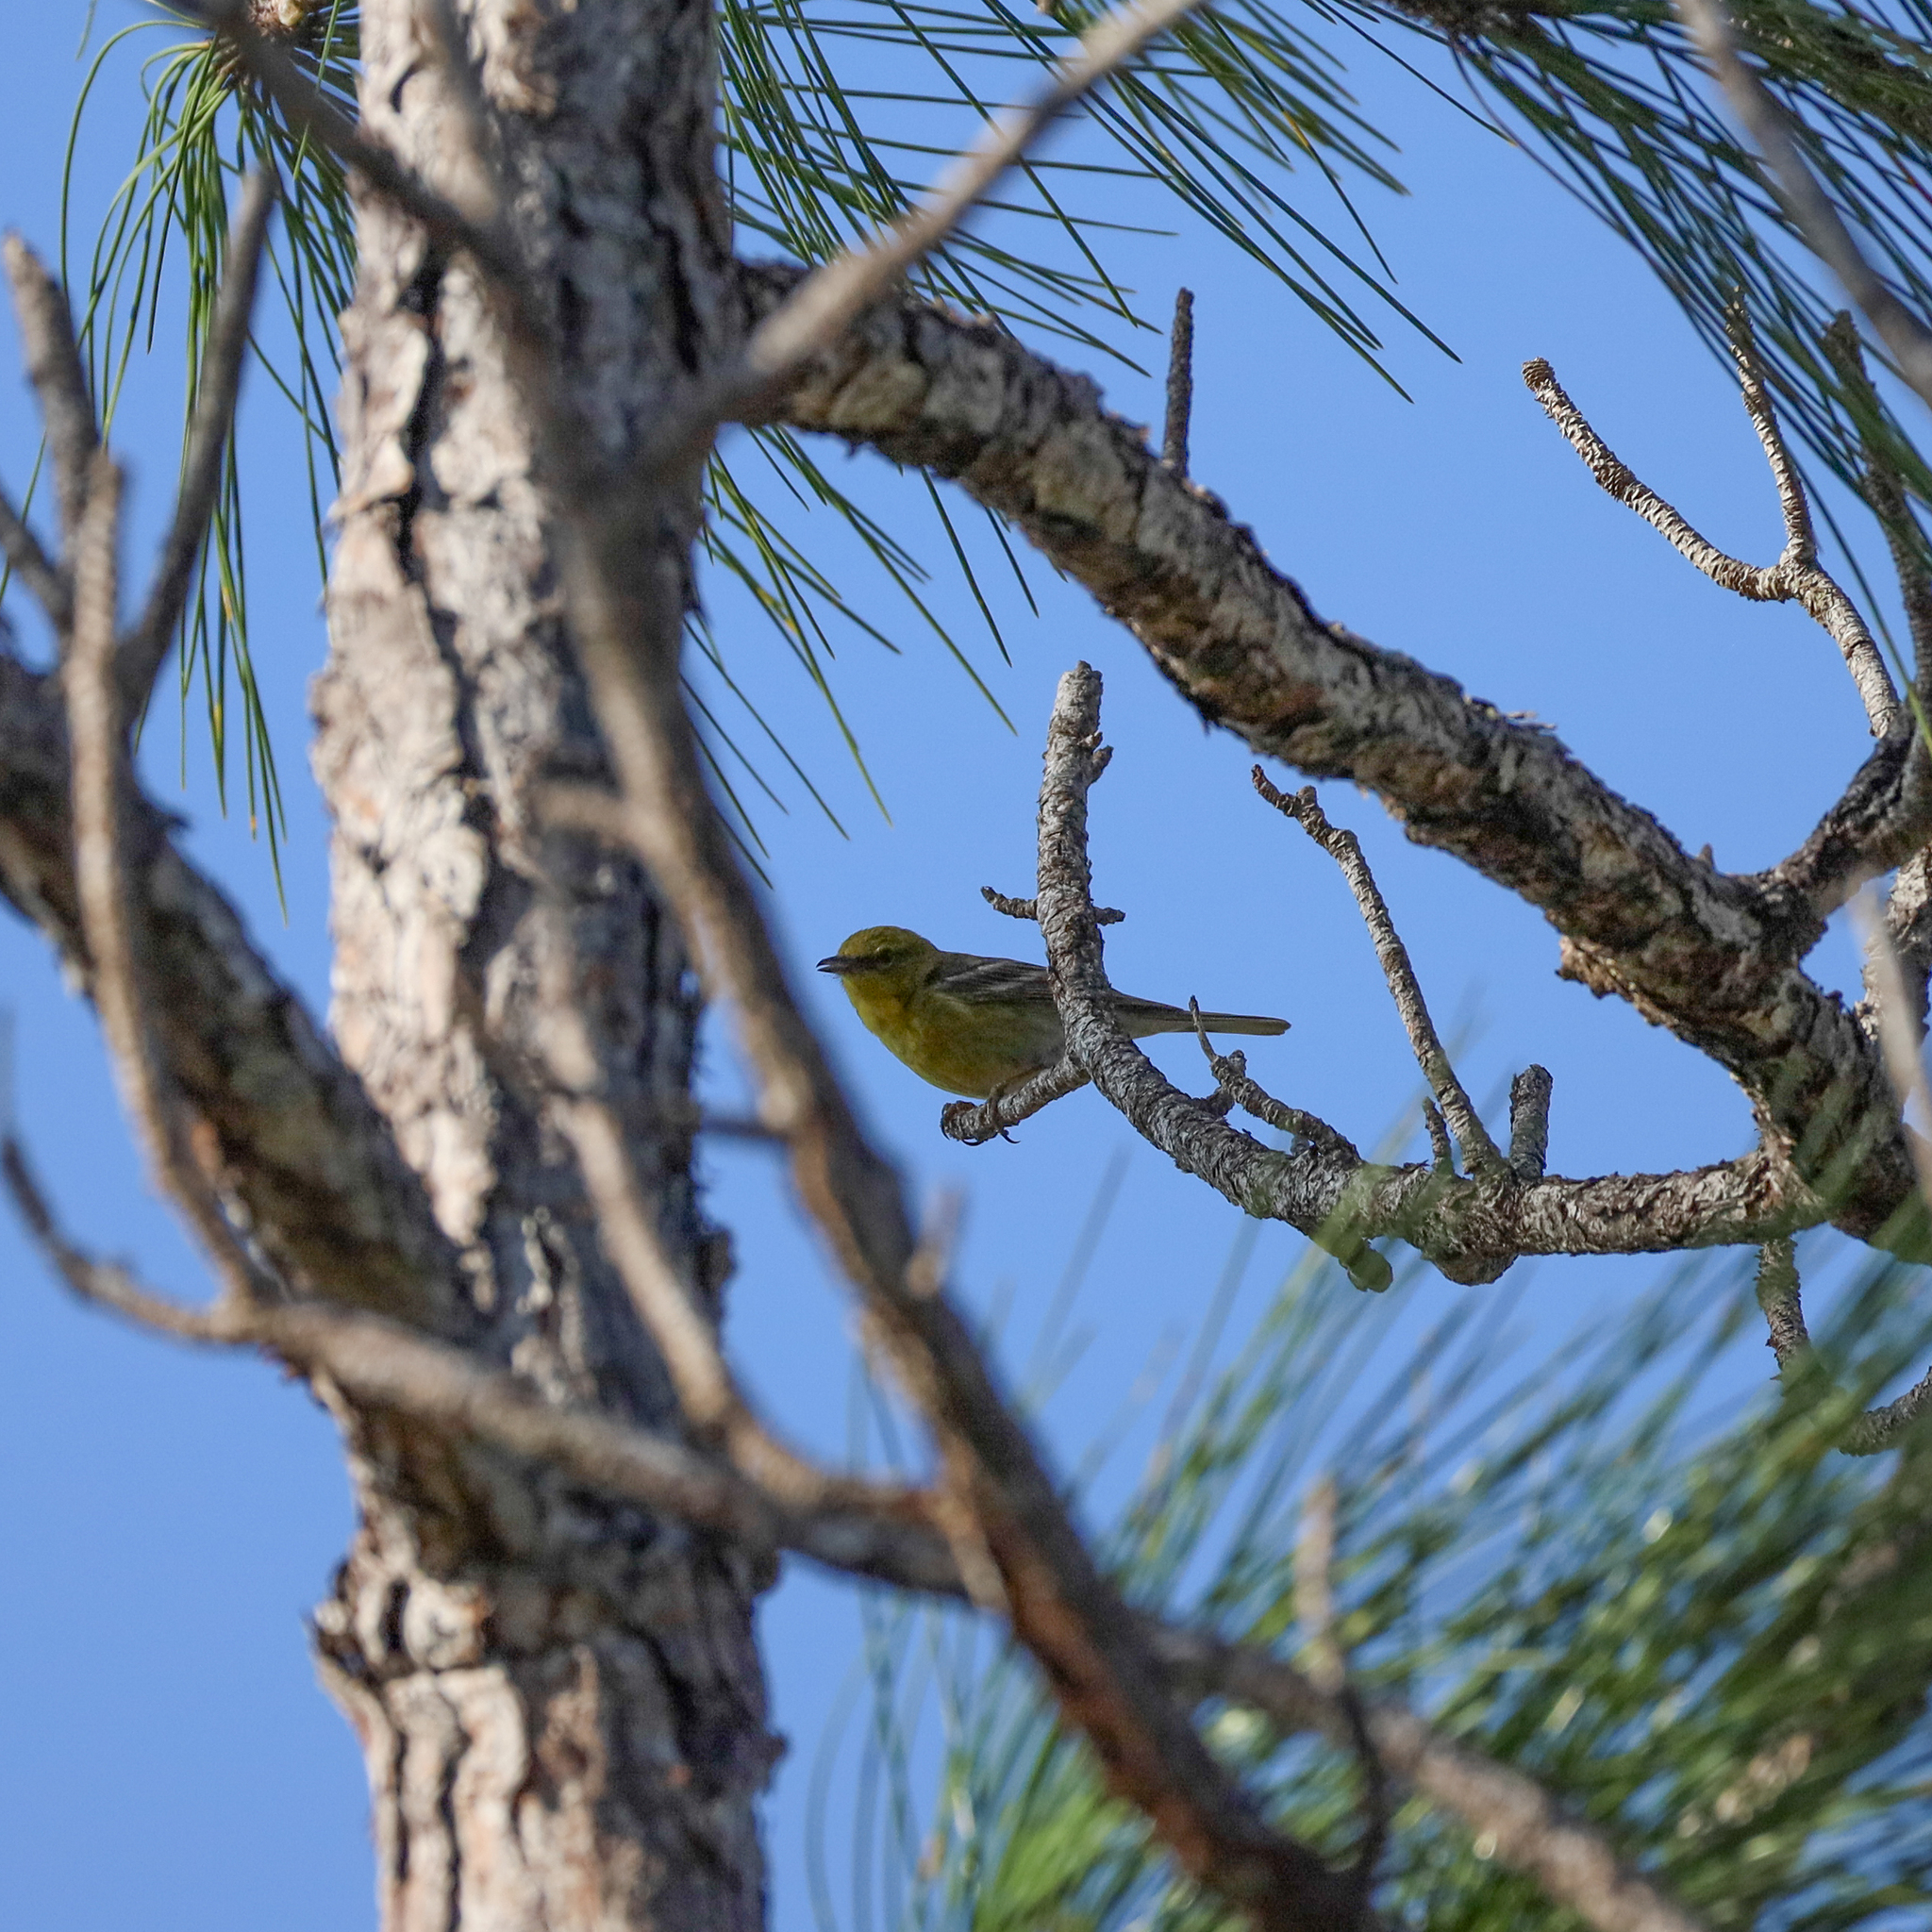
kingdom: Animalia
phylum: Chordata
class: Aves
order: Passeriformes
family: Parulidae
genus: Setophaga
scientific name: Setophaga pinus
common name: Pine warbler
